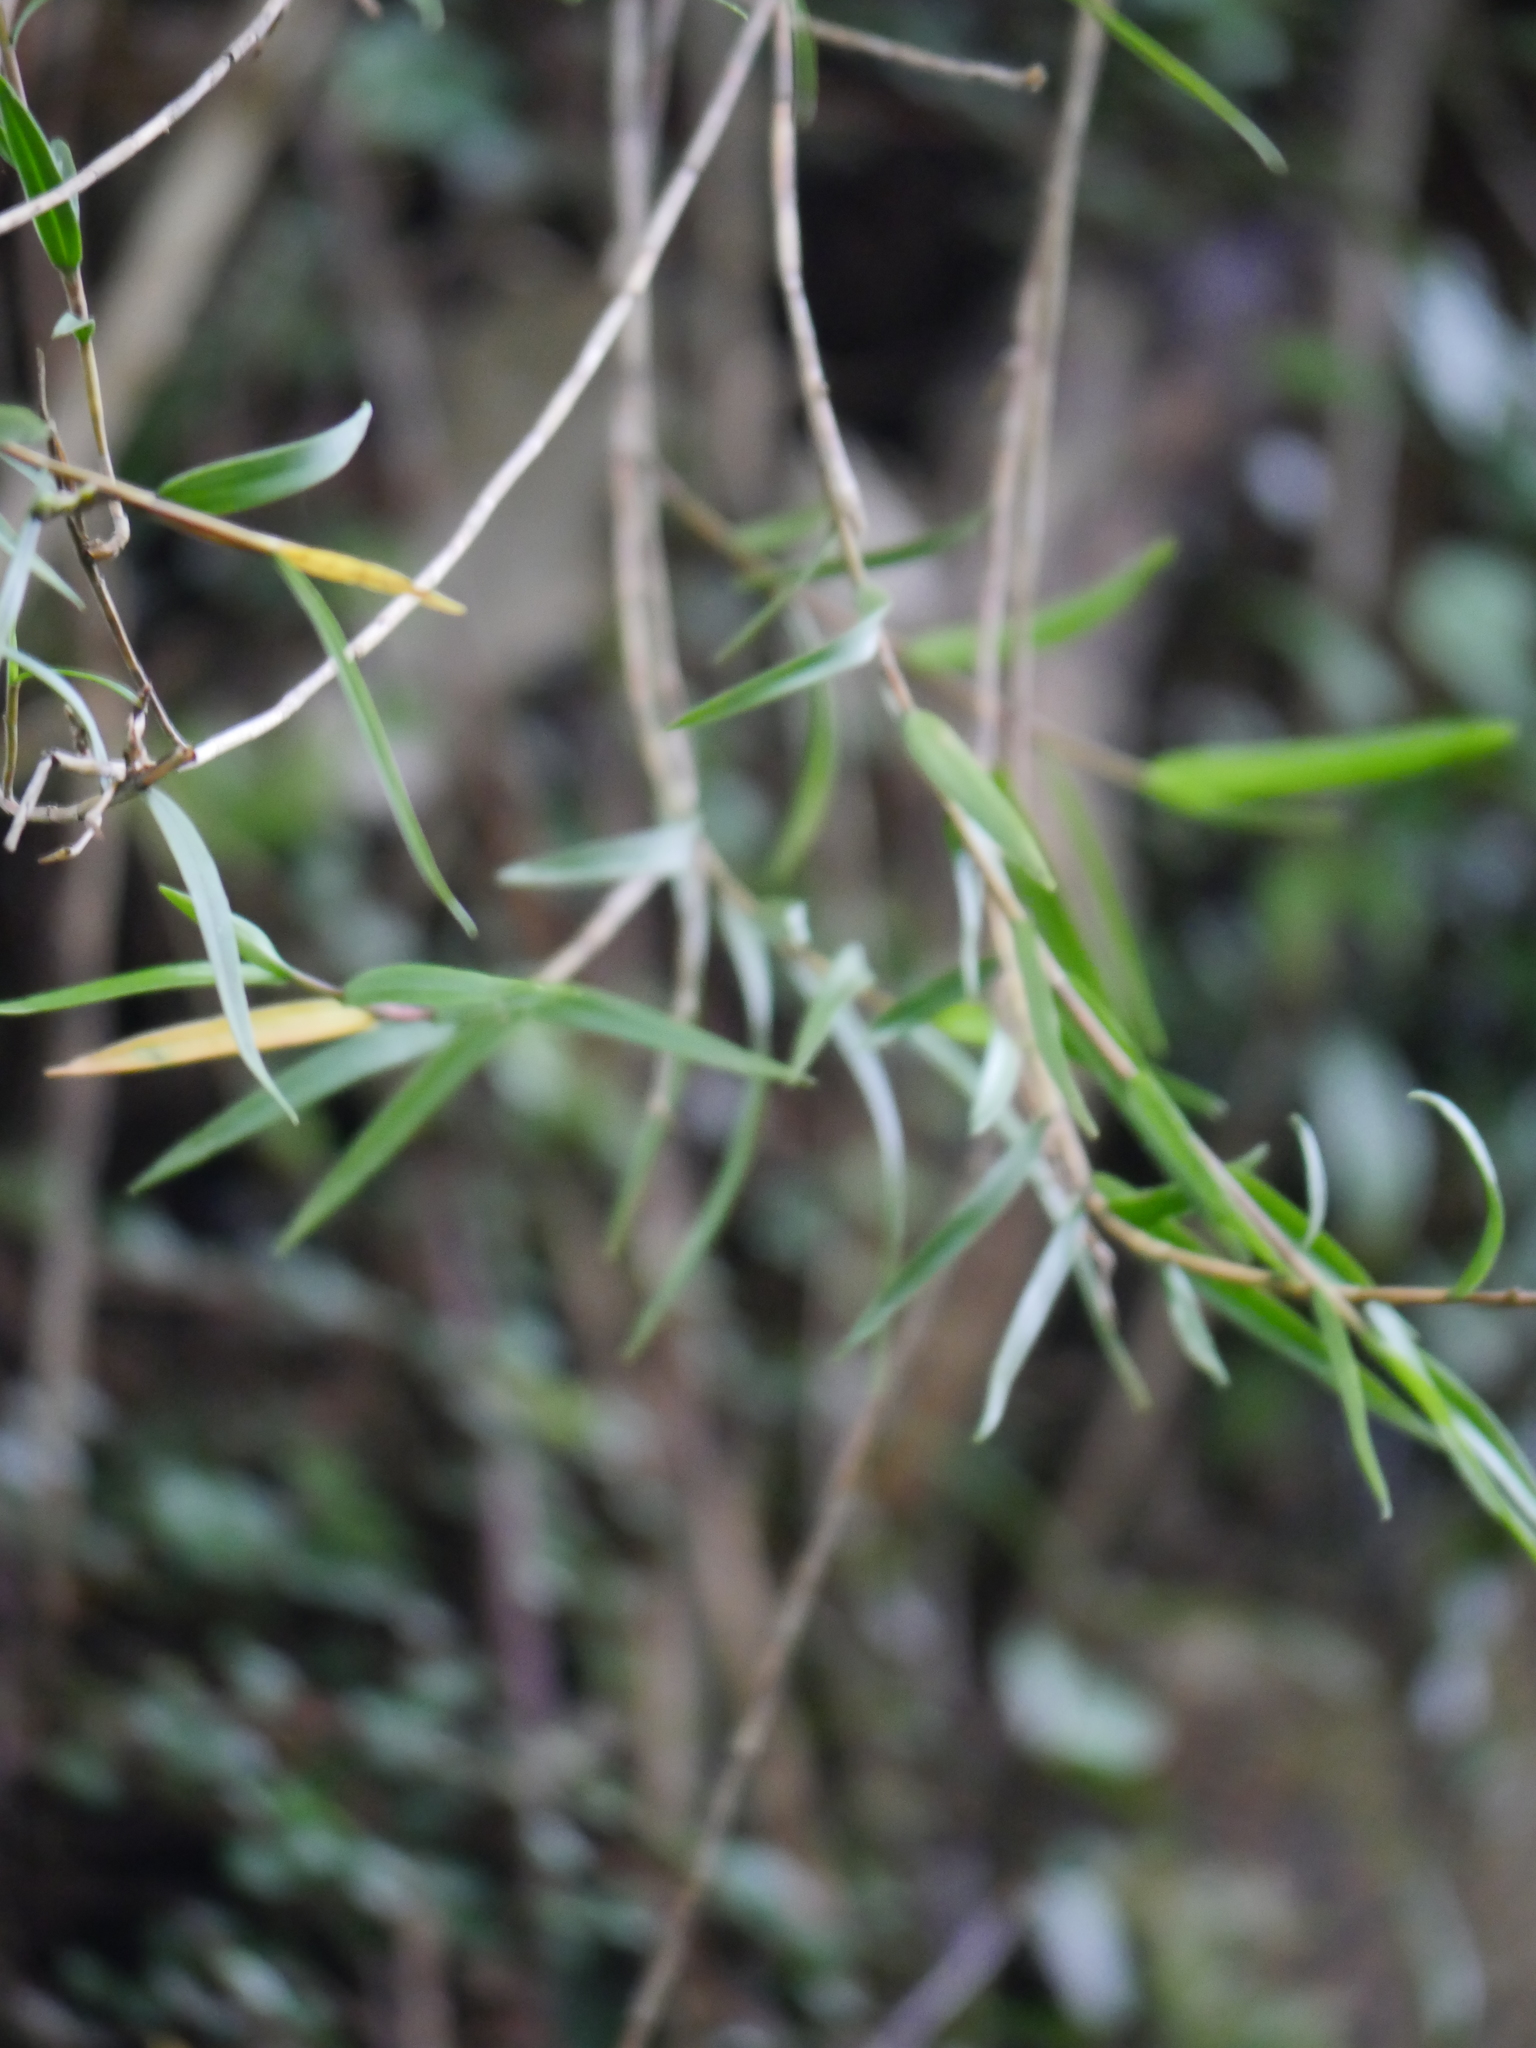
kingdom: Plantae
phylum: Tracheophyta
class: Liliopsida
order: Asparagales
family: Orchidaceae
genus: Dendrobium
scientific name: Dendrobium cunninghamii
